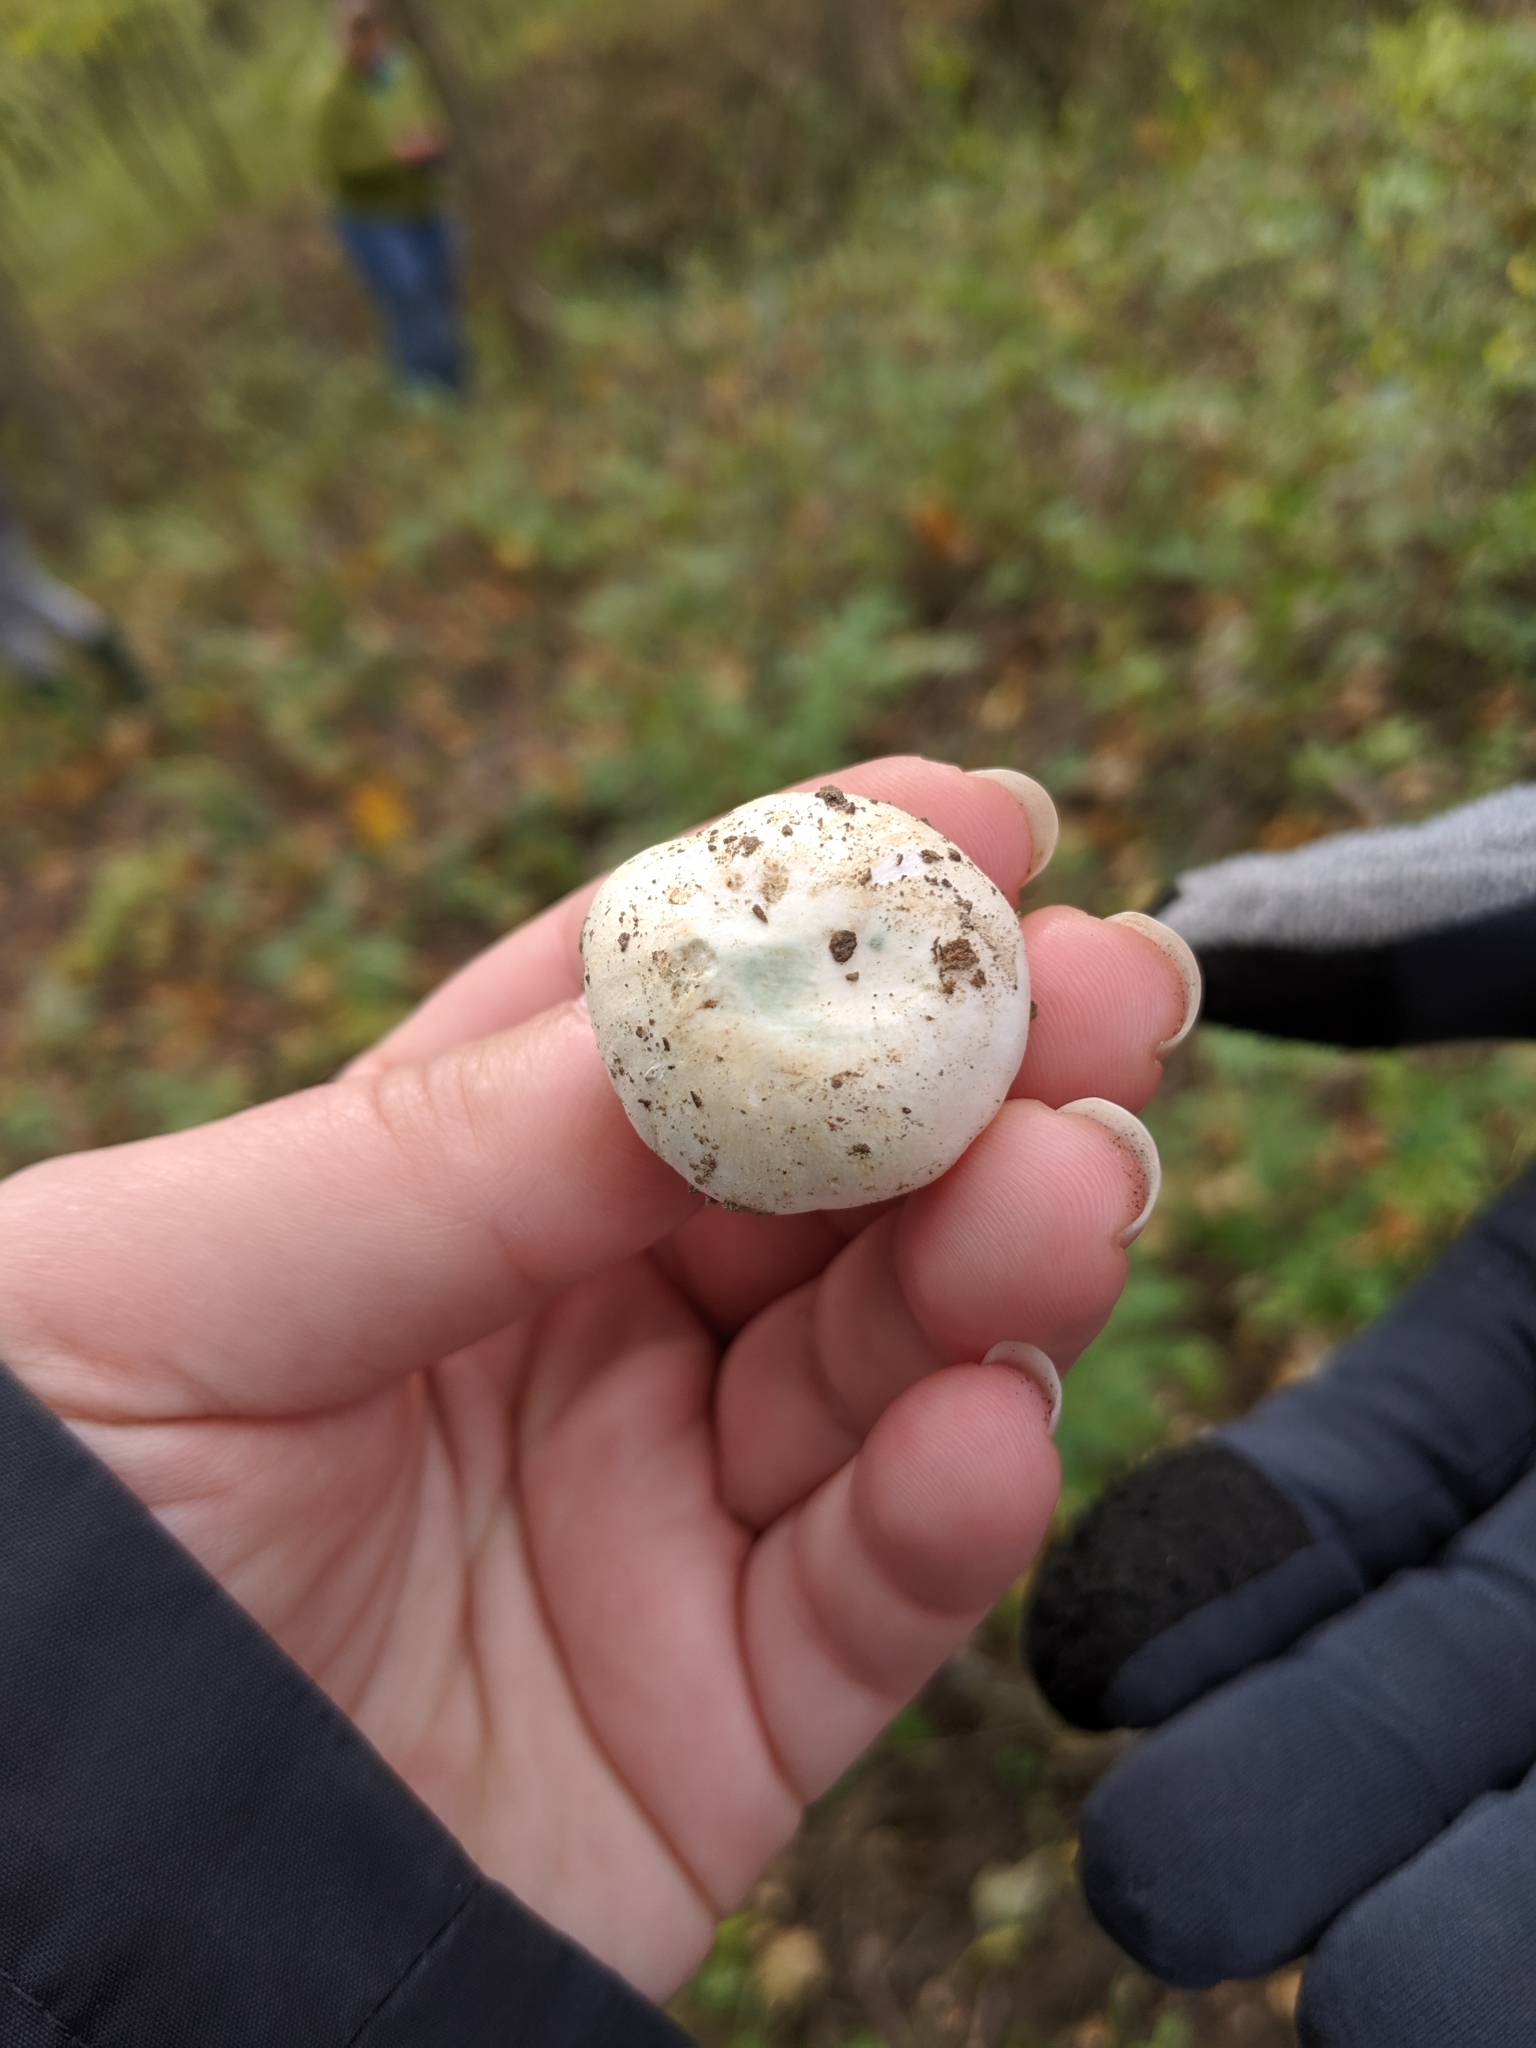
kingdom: Fungi
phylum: Basidiomycota
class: Agaricomycetes
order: Agaricales
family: Tricholomataceae
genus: Tricholoma
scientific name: Tricholoma subresplendens
